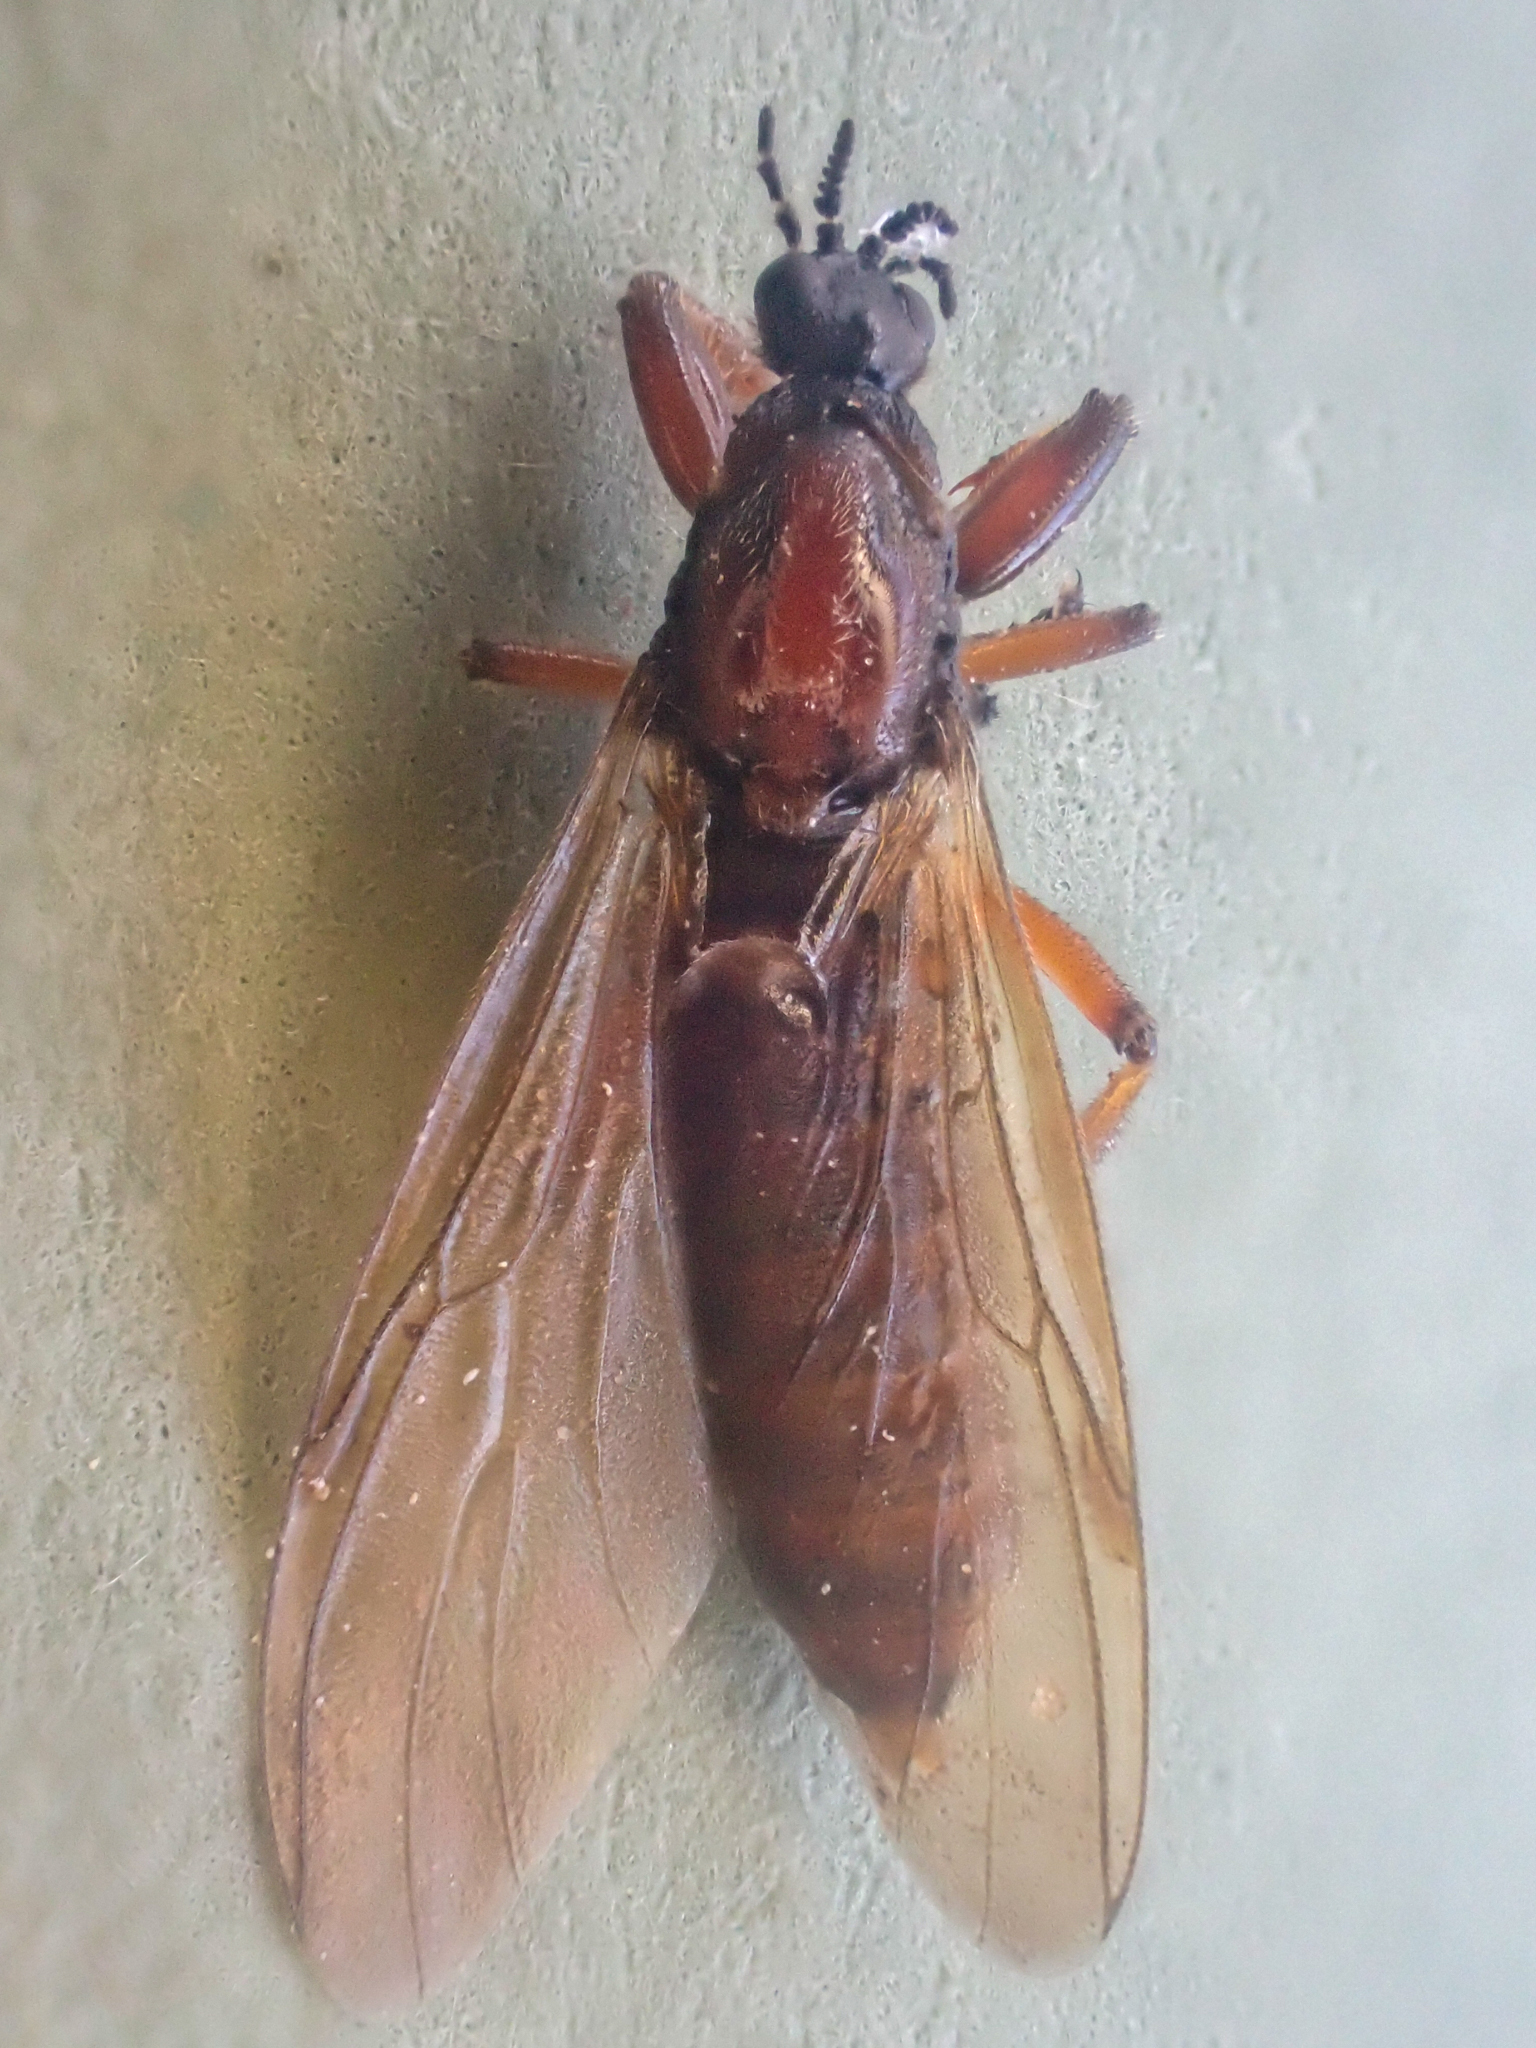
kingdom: Animalia
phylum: Arthropoda
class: Insecta
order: Diptera
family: Bibionidae
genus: Bibio
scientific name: Bibio brunnipes
